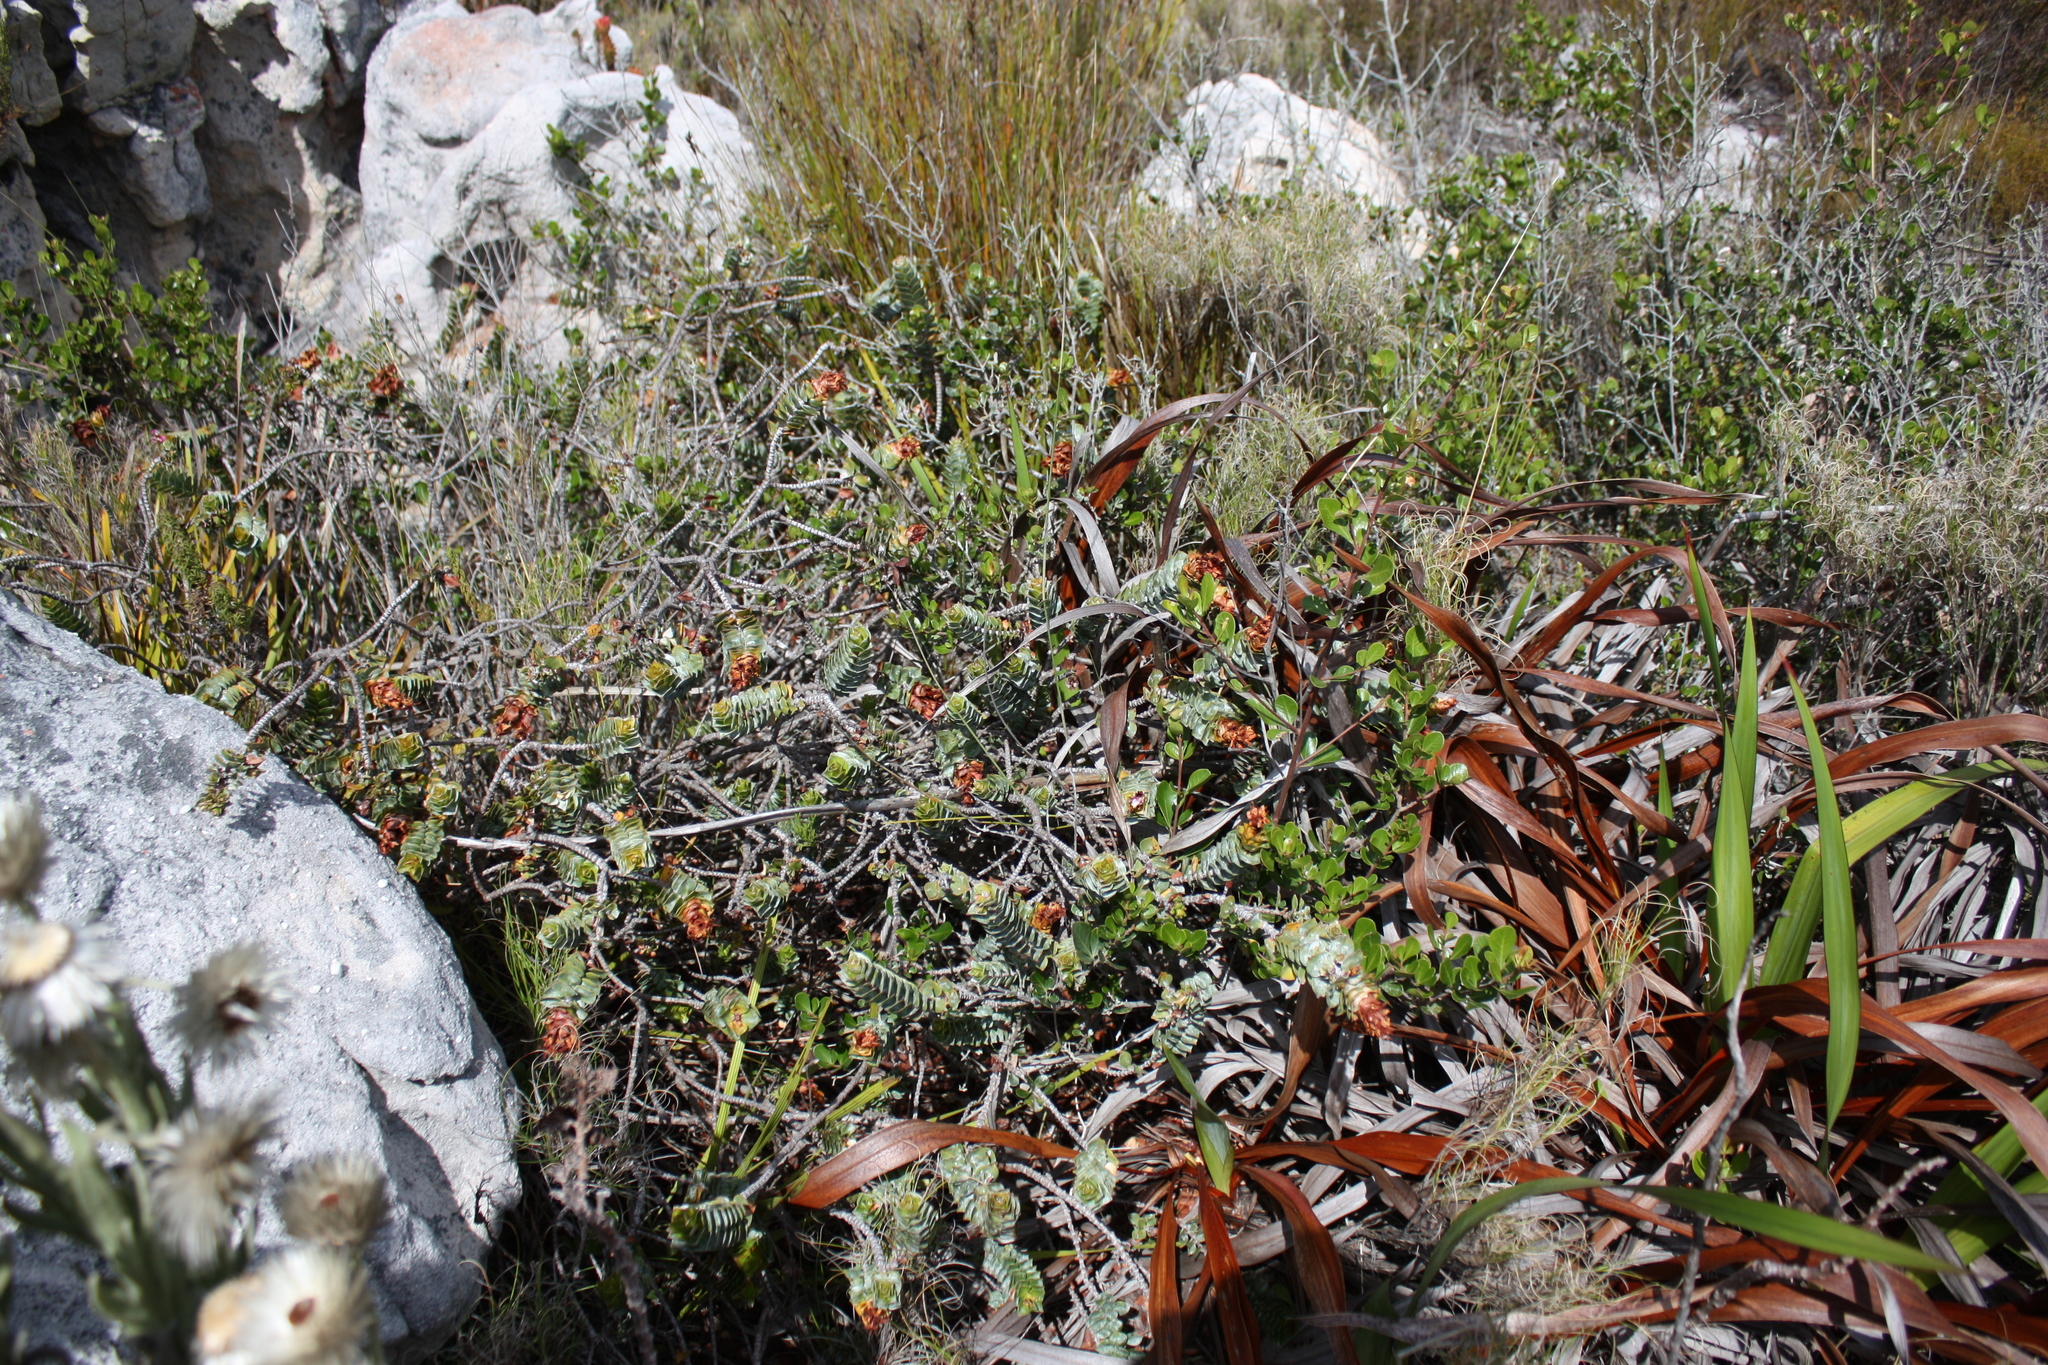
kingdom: Plantae
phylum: Tracheophyta
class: Magnoliopsida
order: Myrtales
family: Penaeaceae
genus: Saltera
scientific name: Saltera sarcocolla
